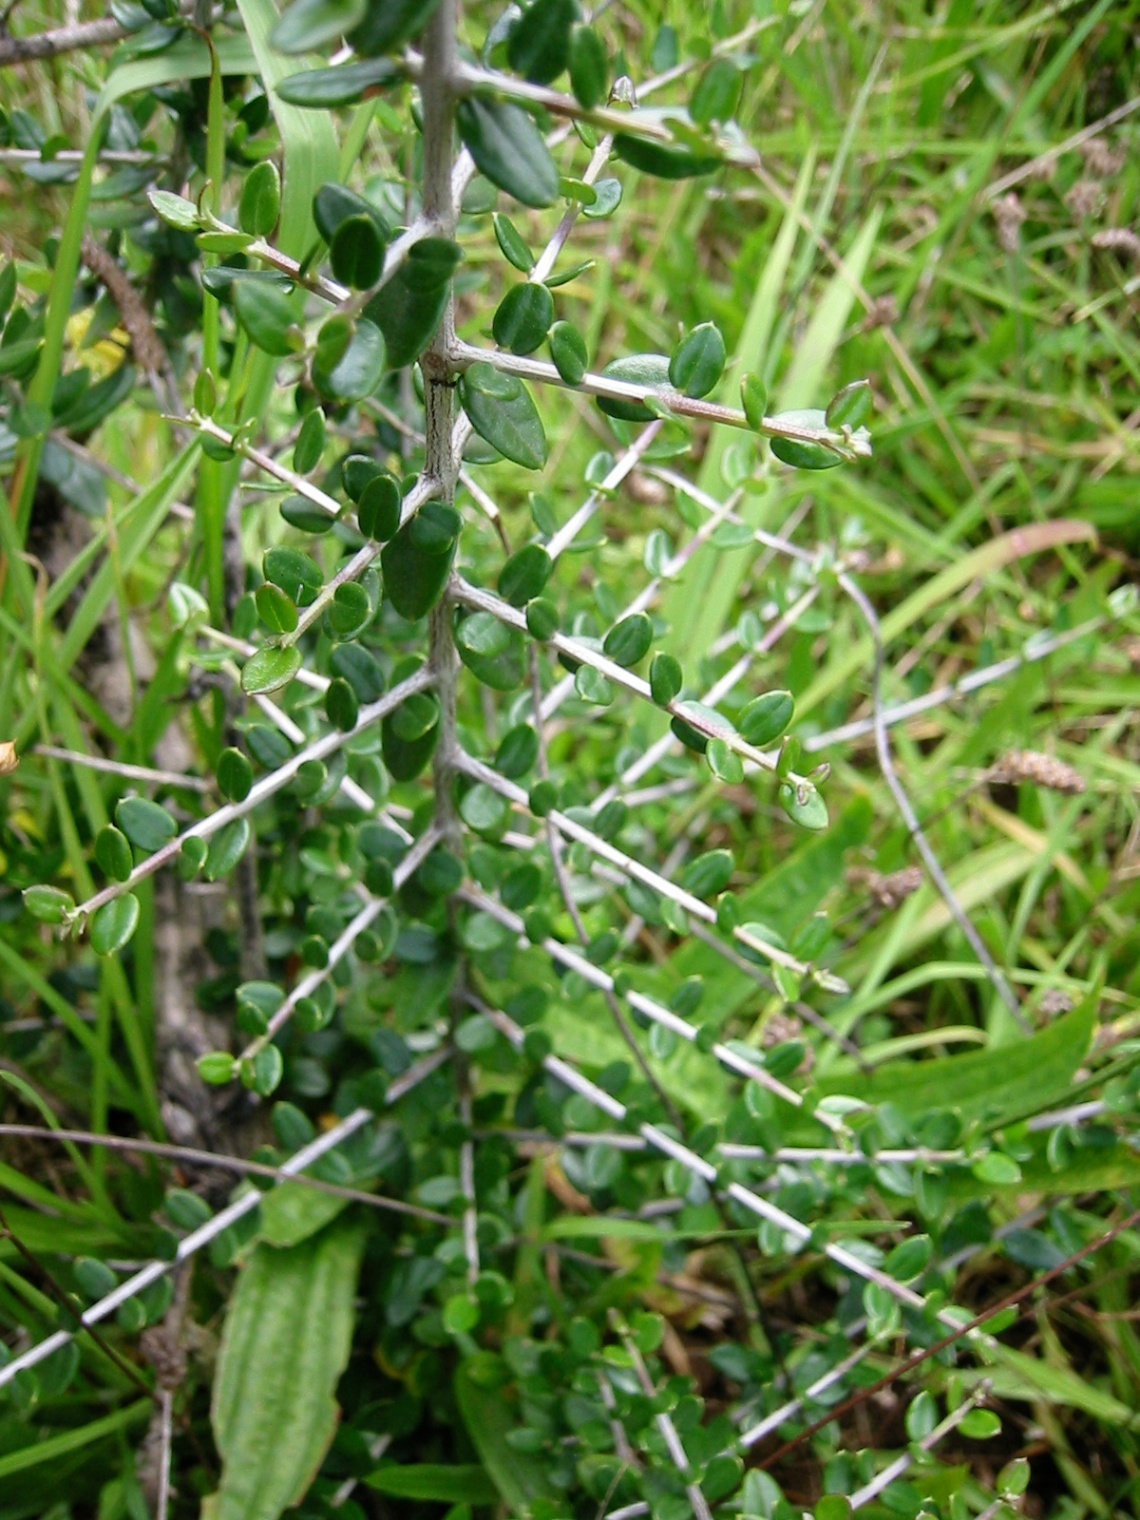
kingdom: Plantae
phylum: Tracheophyta
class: Magnoliopsida
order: Lamiales
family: Oleaceae
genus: Olea
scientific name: Olea europaea
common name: Olive
